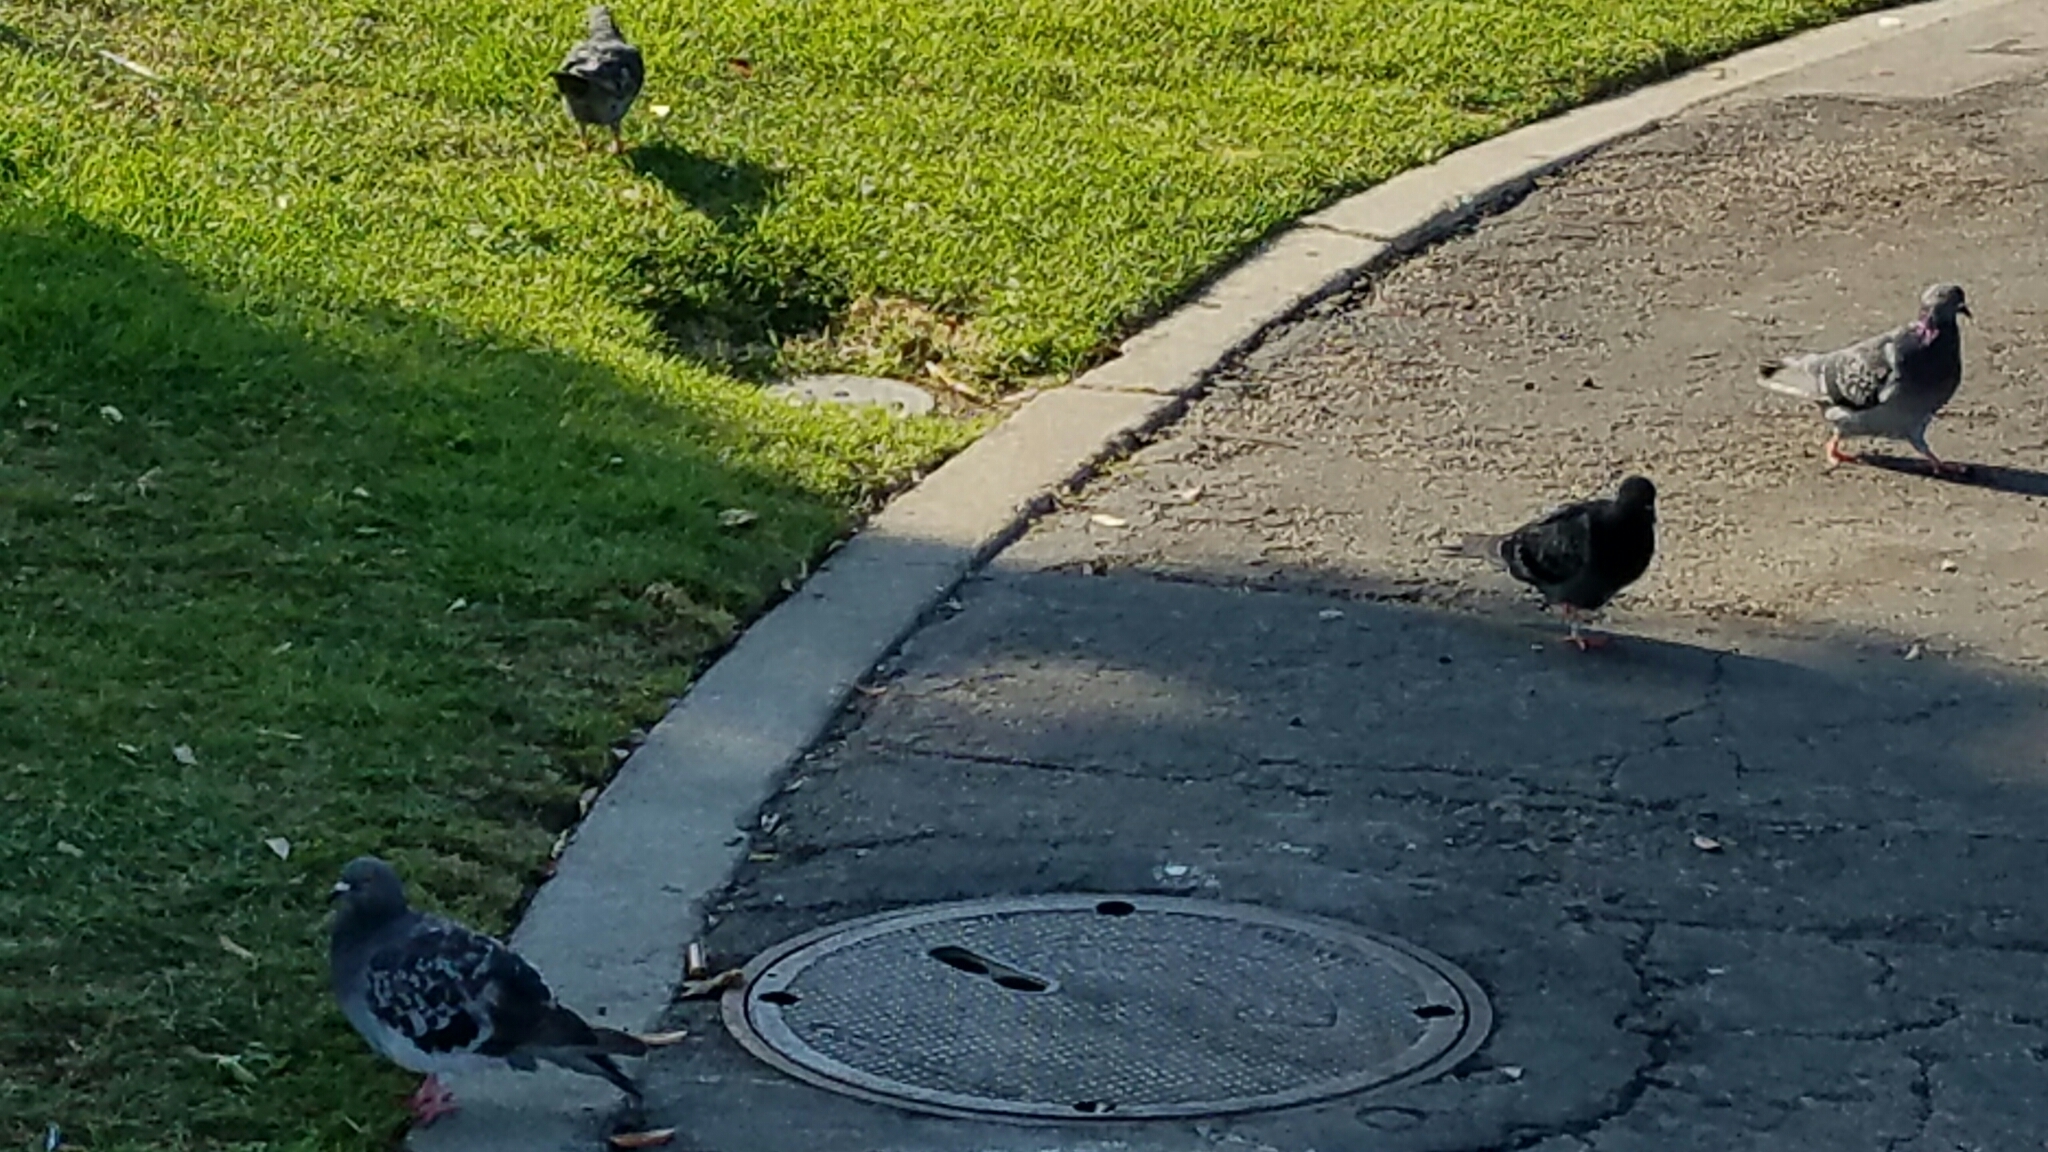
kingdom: Animalia
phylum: Chordata
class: Aves
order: Columbiformes
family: Columbidae
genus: Columba
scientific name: Columba livia
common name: Rock pigeon
